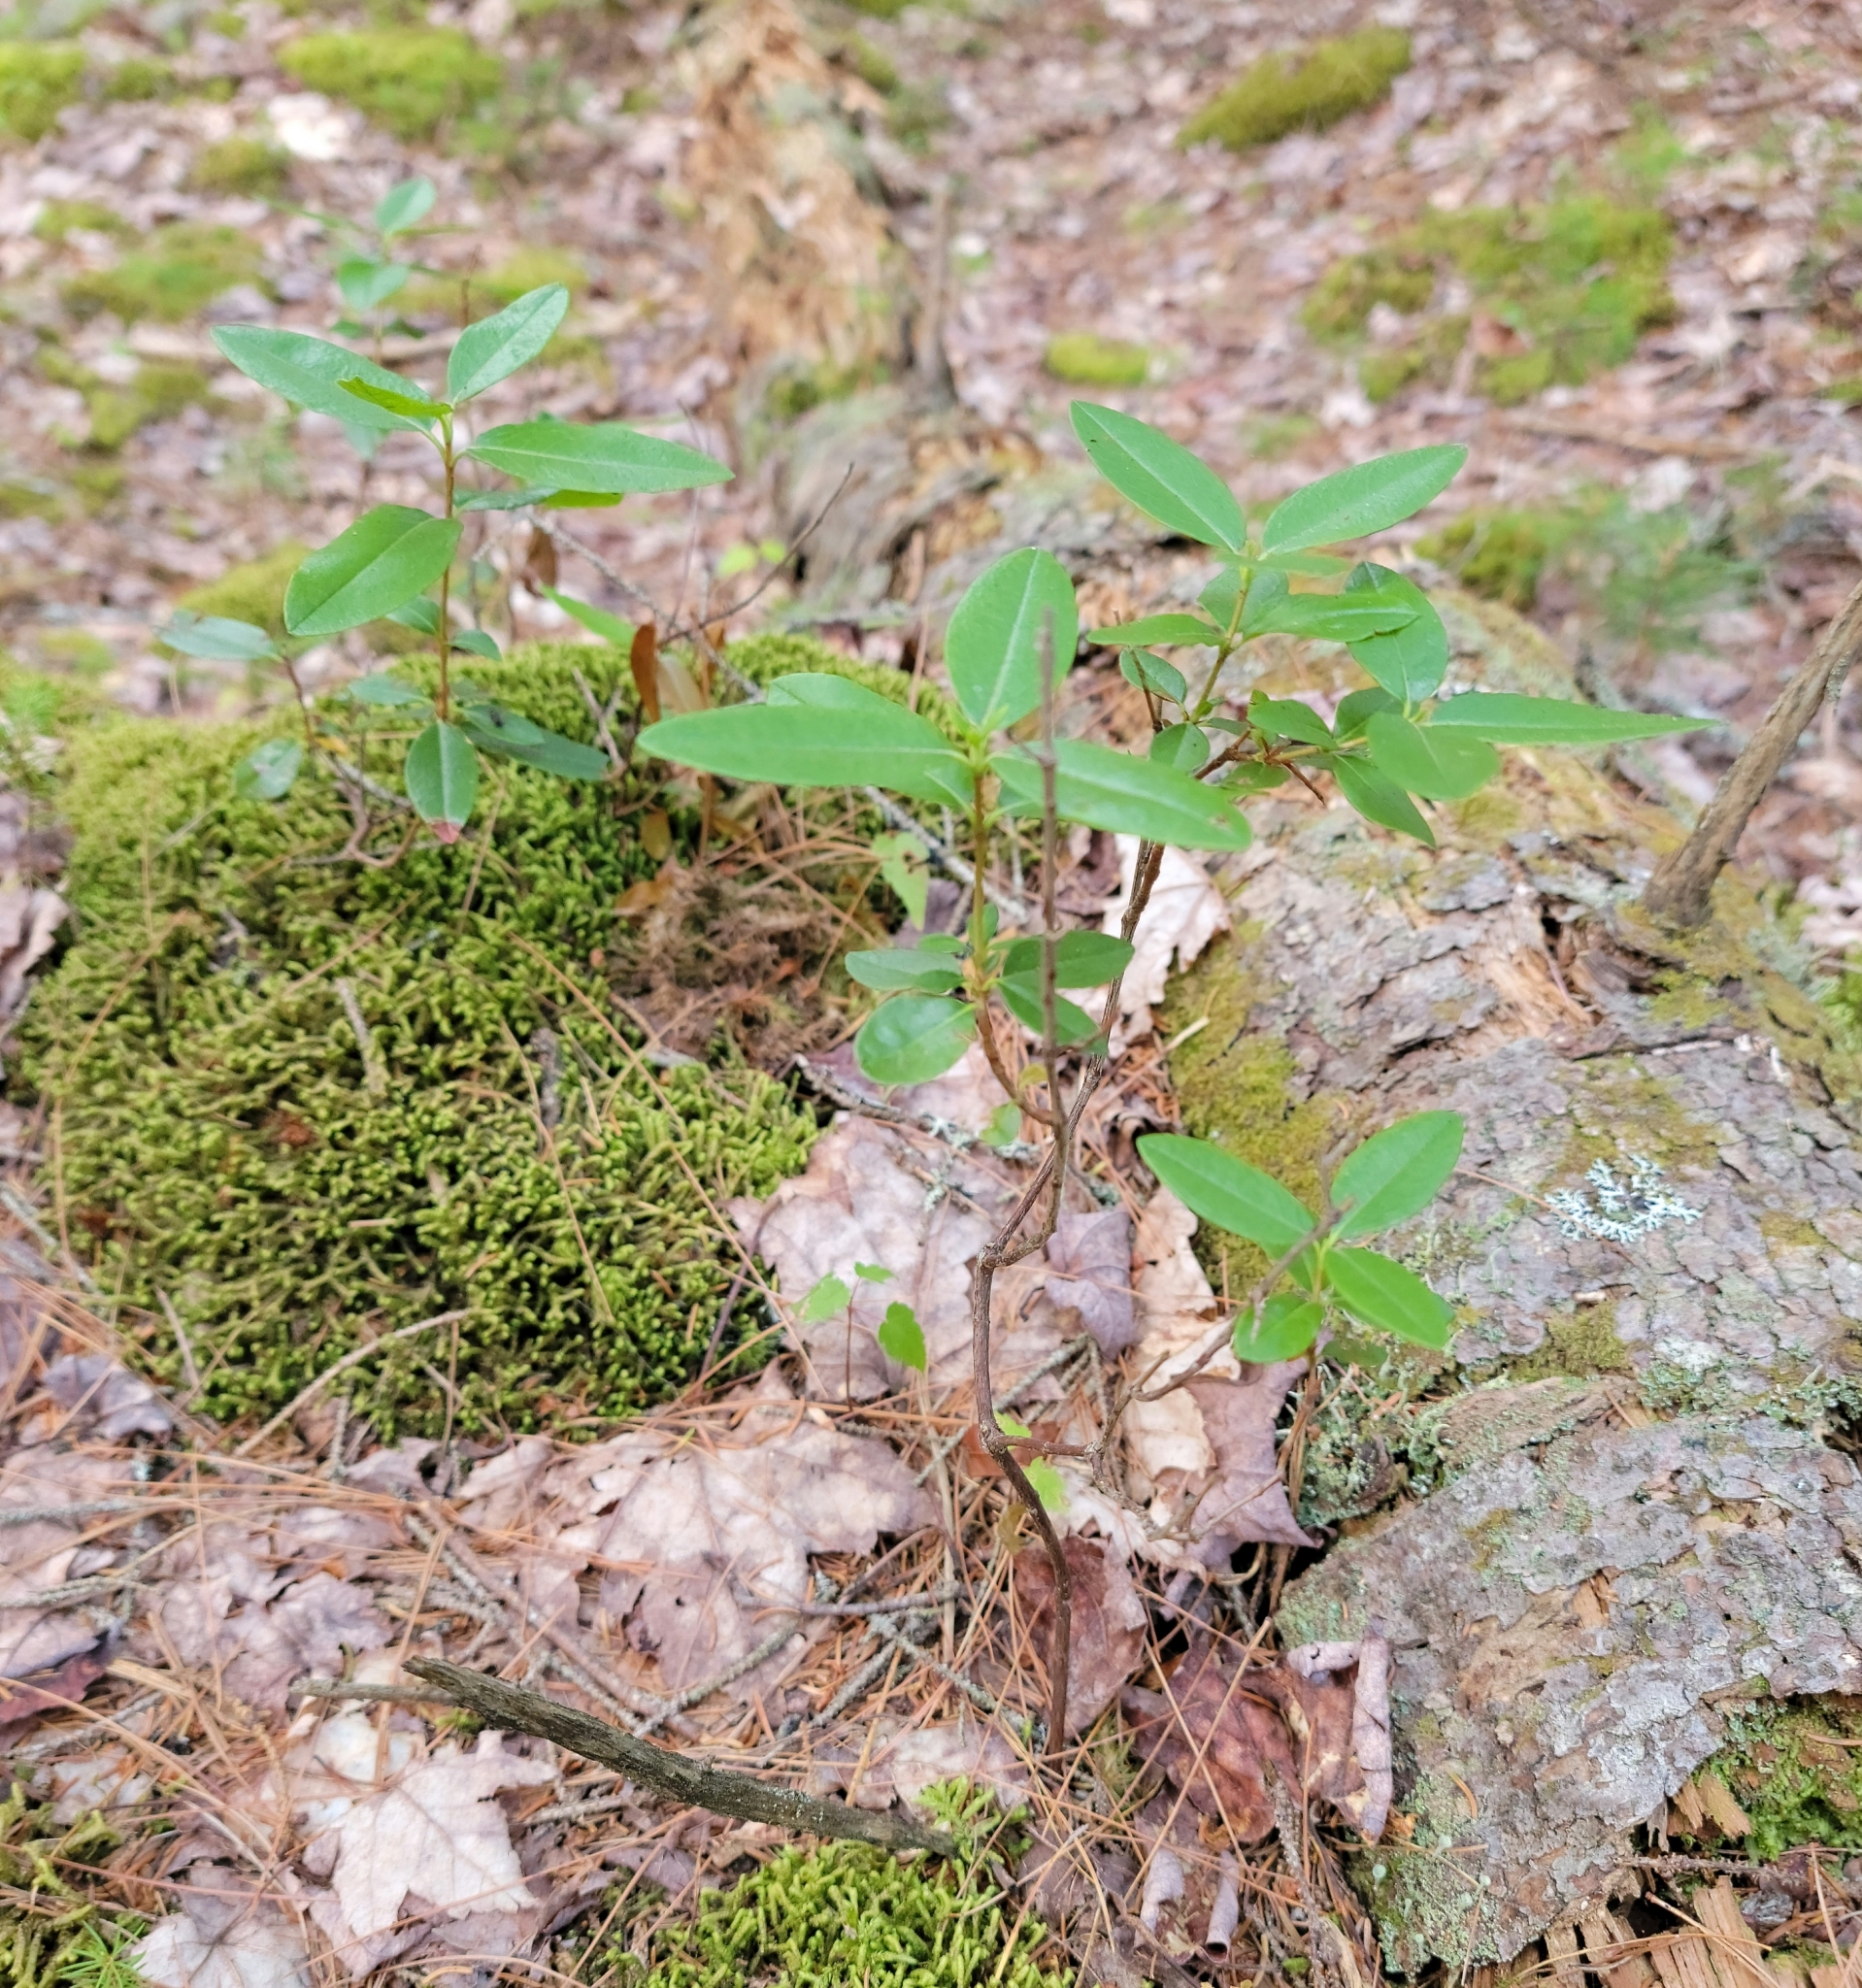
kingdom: Plantae
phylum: Tracheophyta
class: Magnoliopsida
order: Ericales
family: Ericaceae
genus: Kalmia
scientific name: Kalmia angustifolia
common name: Sheep-laurel
